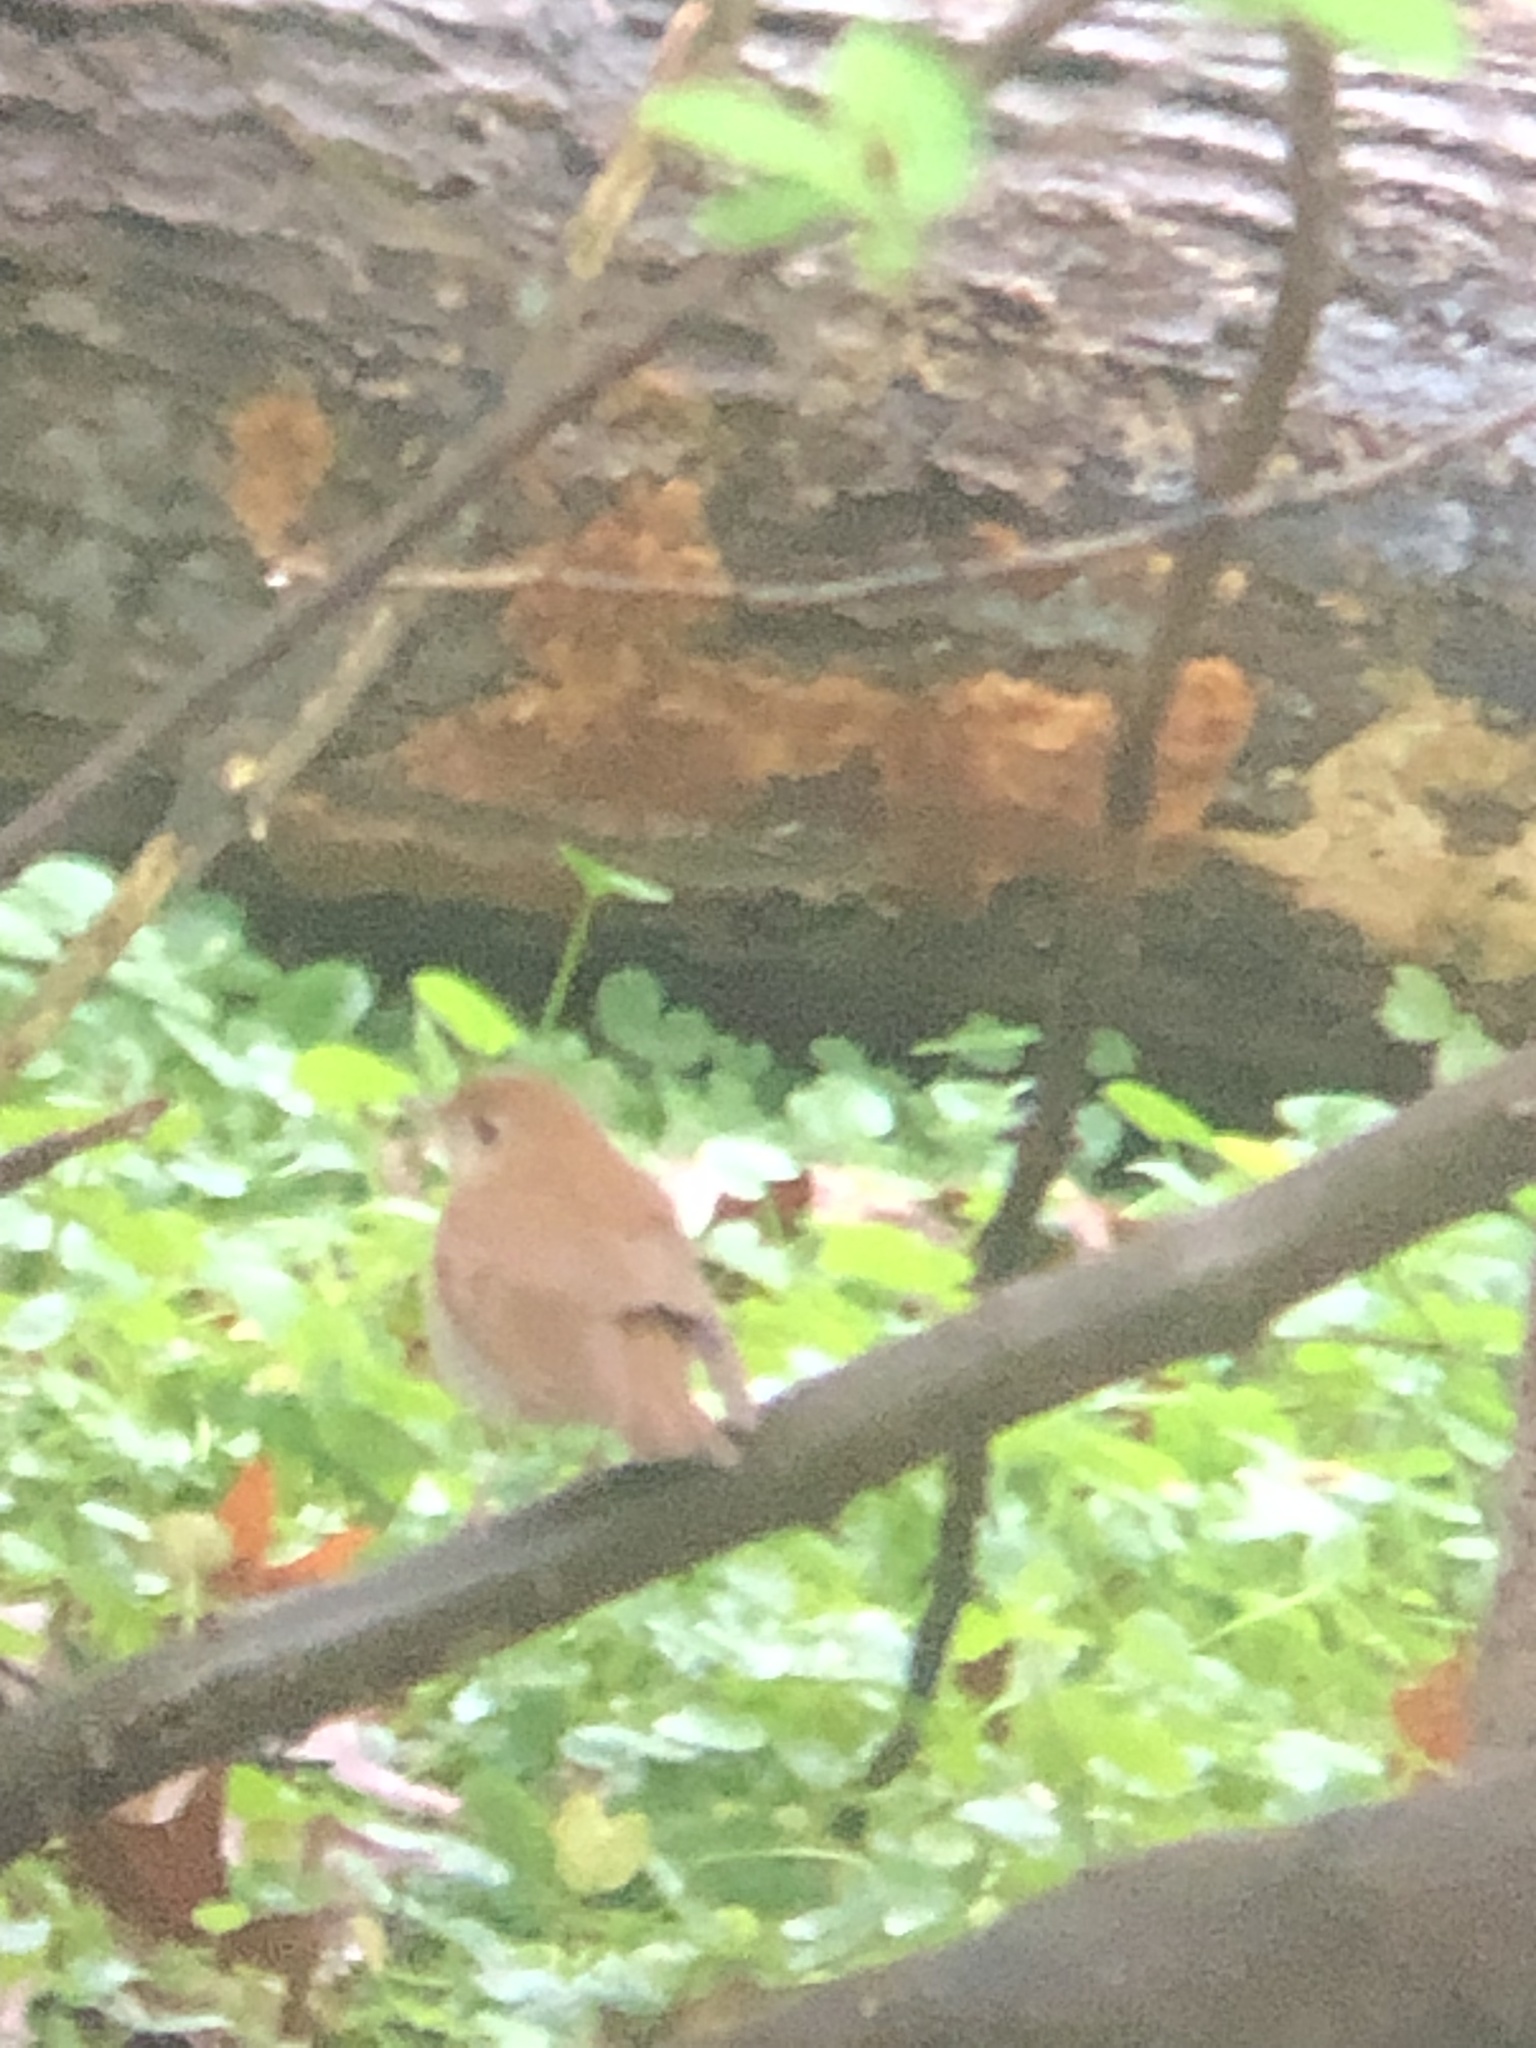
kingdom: Animalia
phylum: Chordata
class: Aves
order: Passeriformes
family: Turdidae
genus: Catharus
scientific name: Catharus fuscescens
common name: Veery
